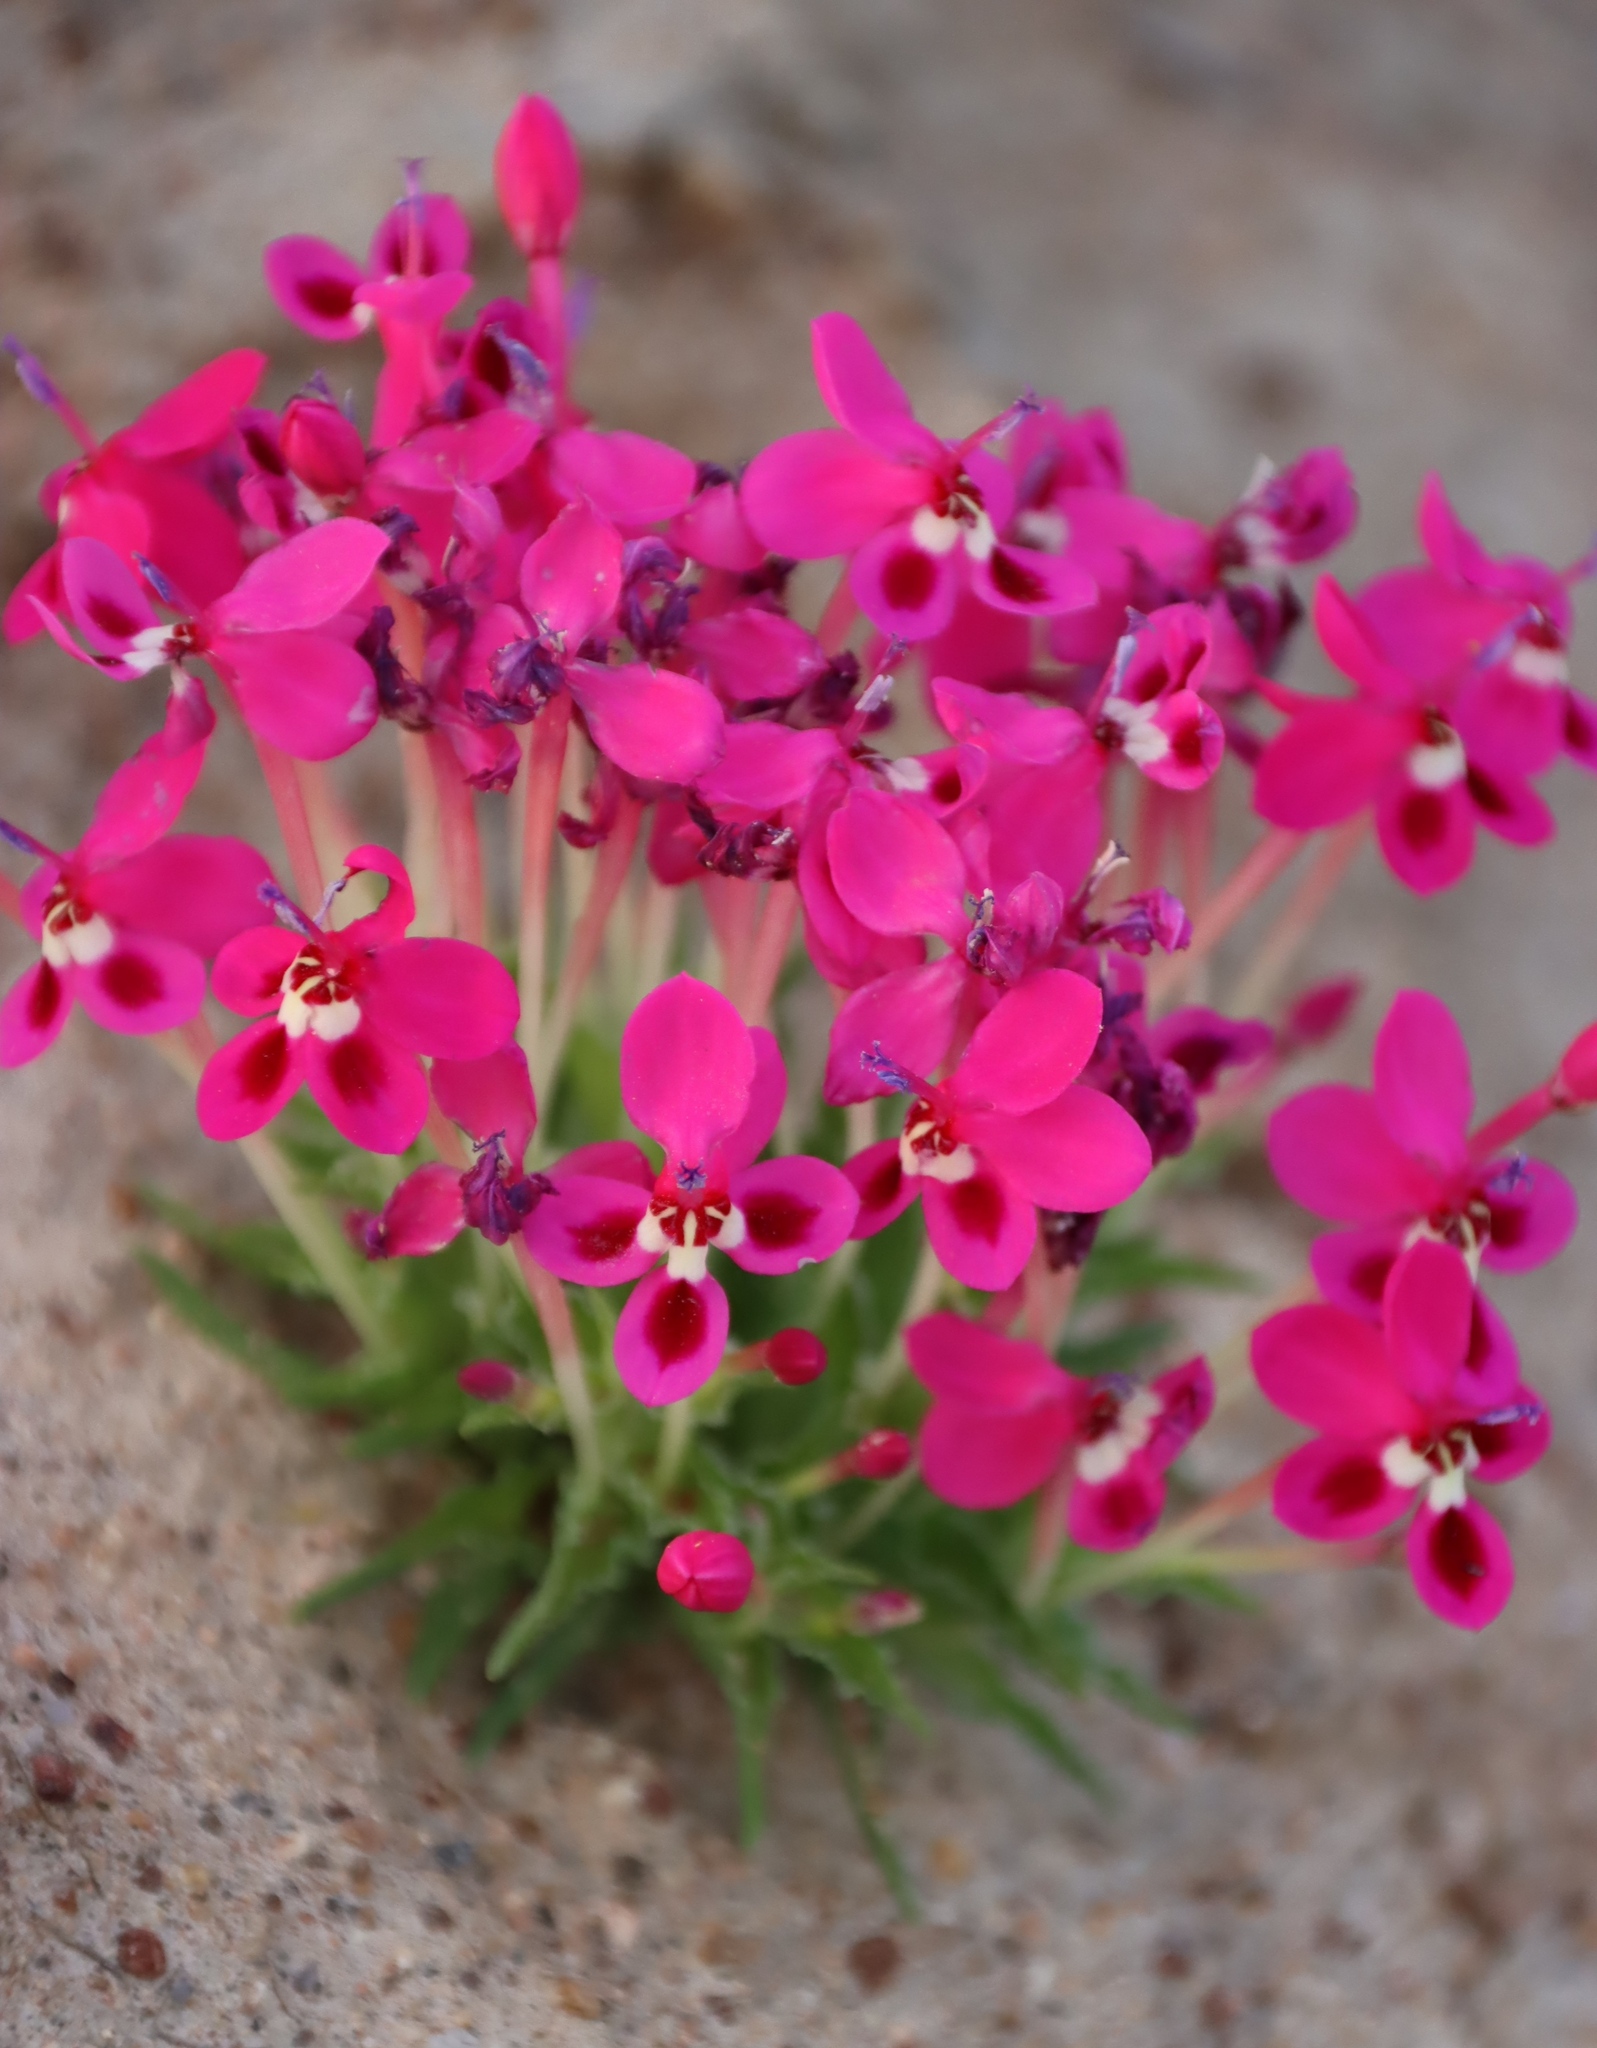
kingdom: Plantae
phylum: Tracheophyta
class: Liliopsida
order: Asparagales
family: Iridaceae
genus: Lapeirousia
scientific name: Lapeirousia silenoides
